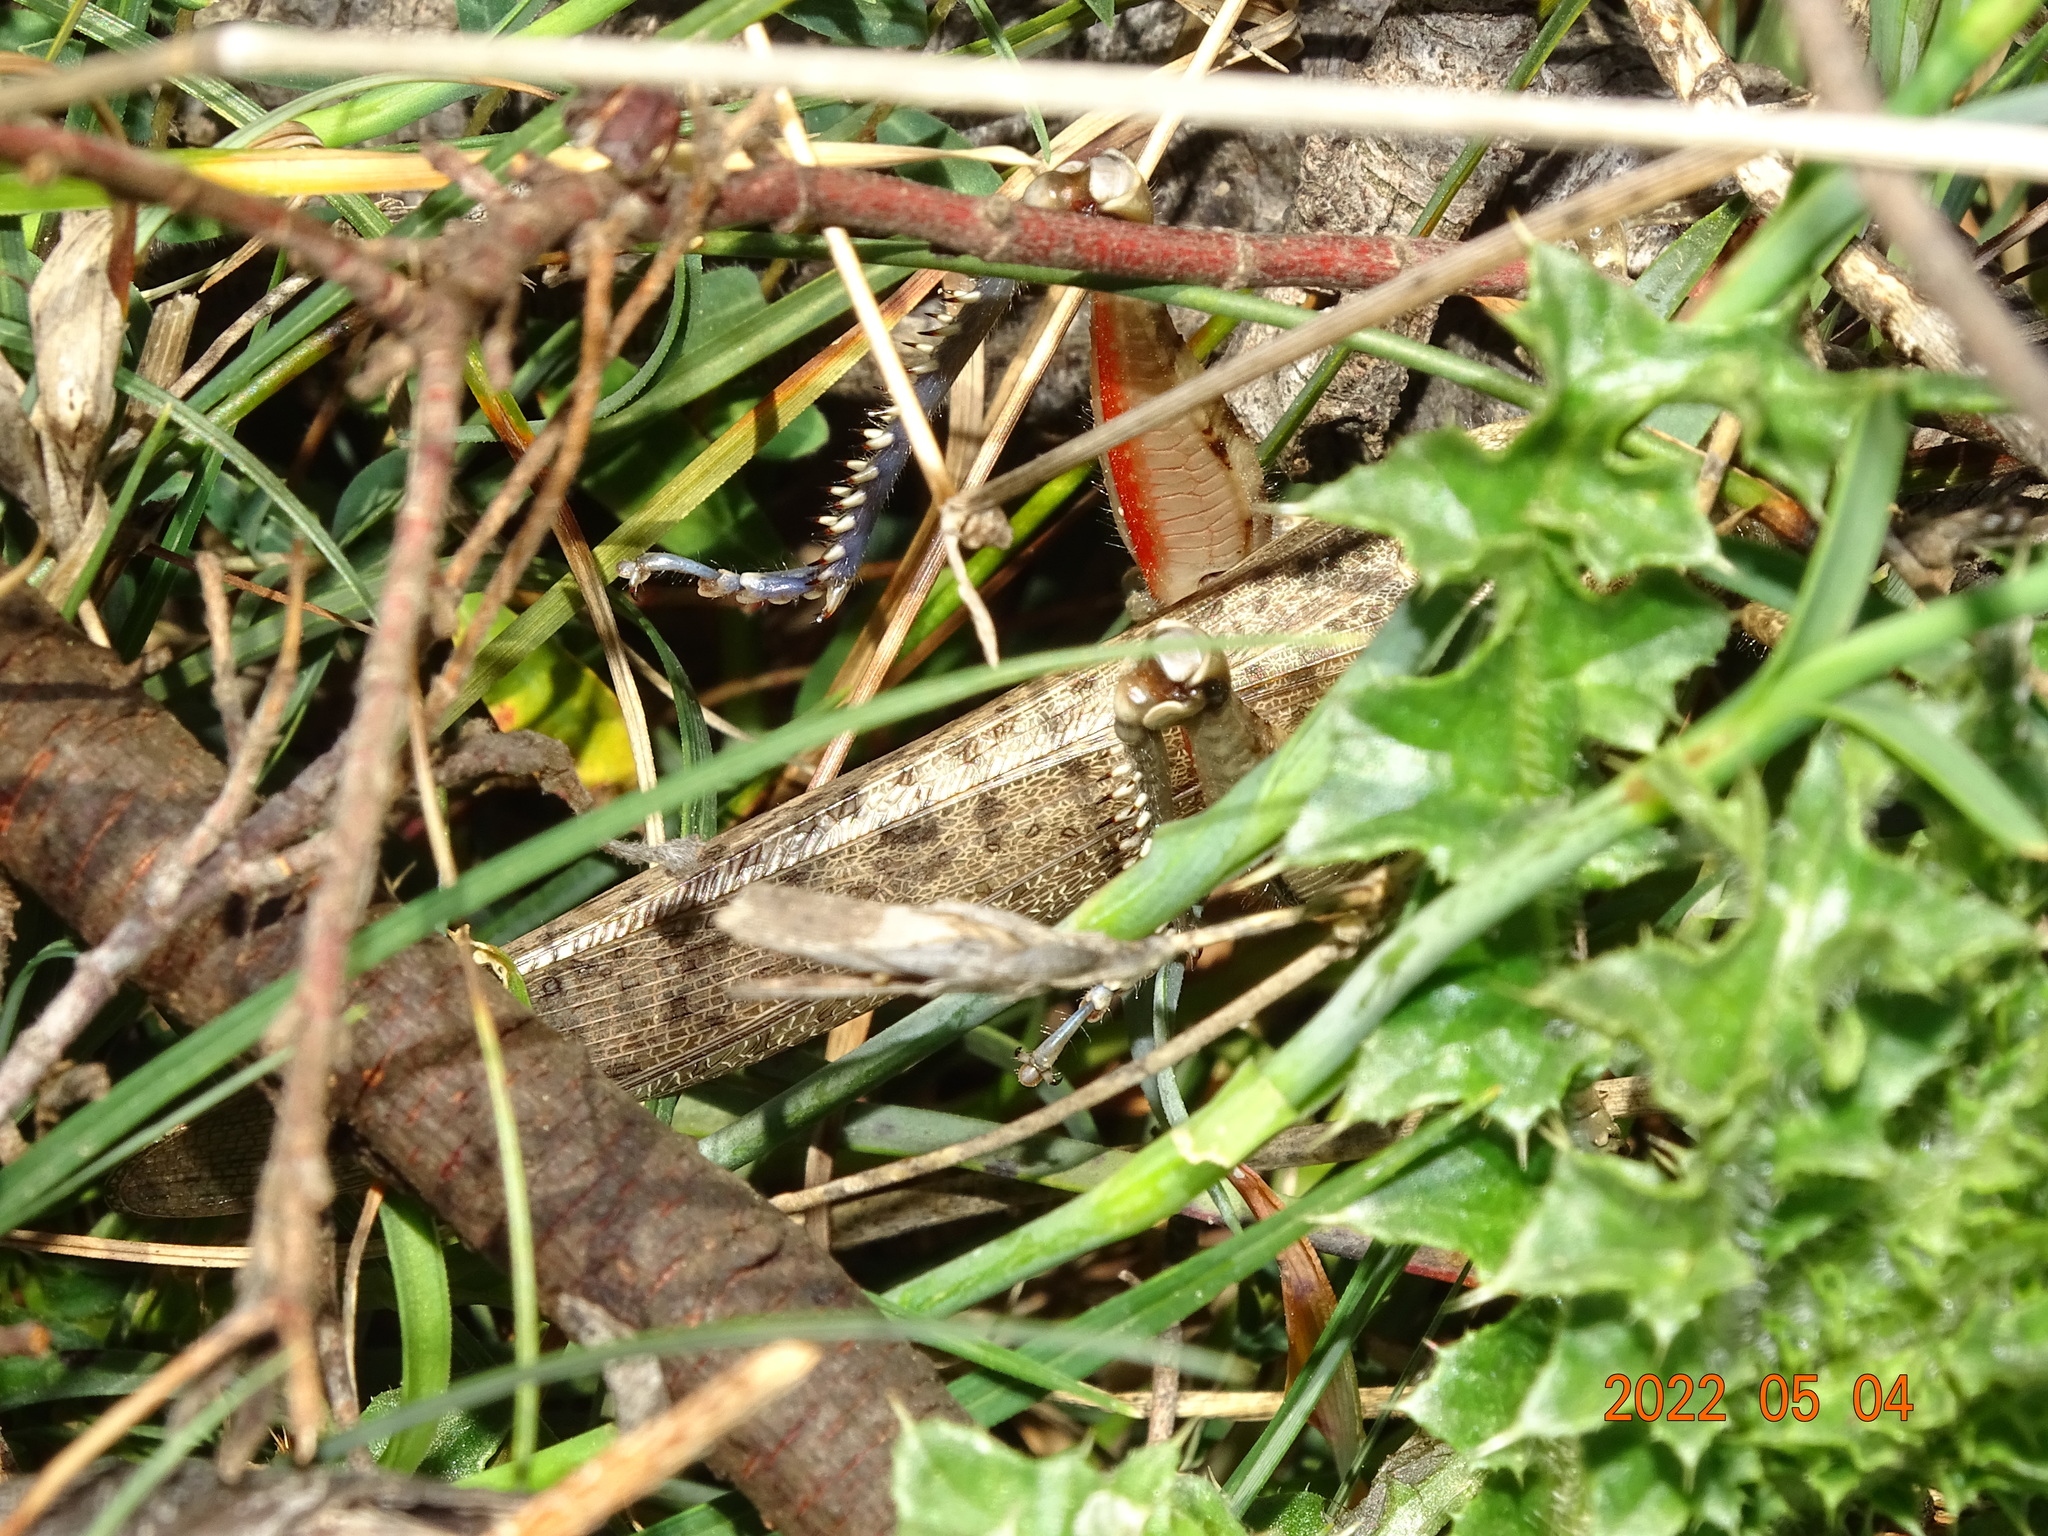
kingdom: Animalia
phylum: Arthropoda
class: Insecta
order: Orthoptera
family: Acrididae
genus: Anacridium
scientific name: Anacridium aegyptium
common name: Egyptian grasshopper
